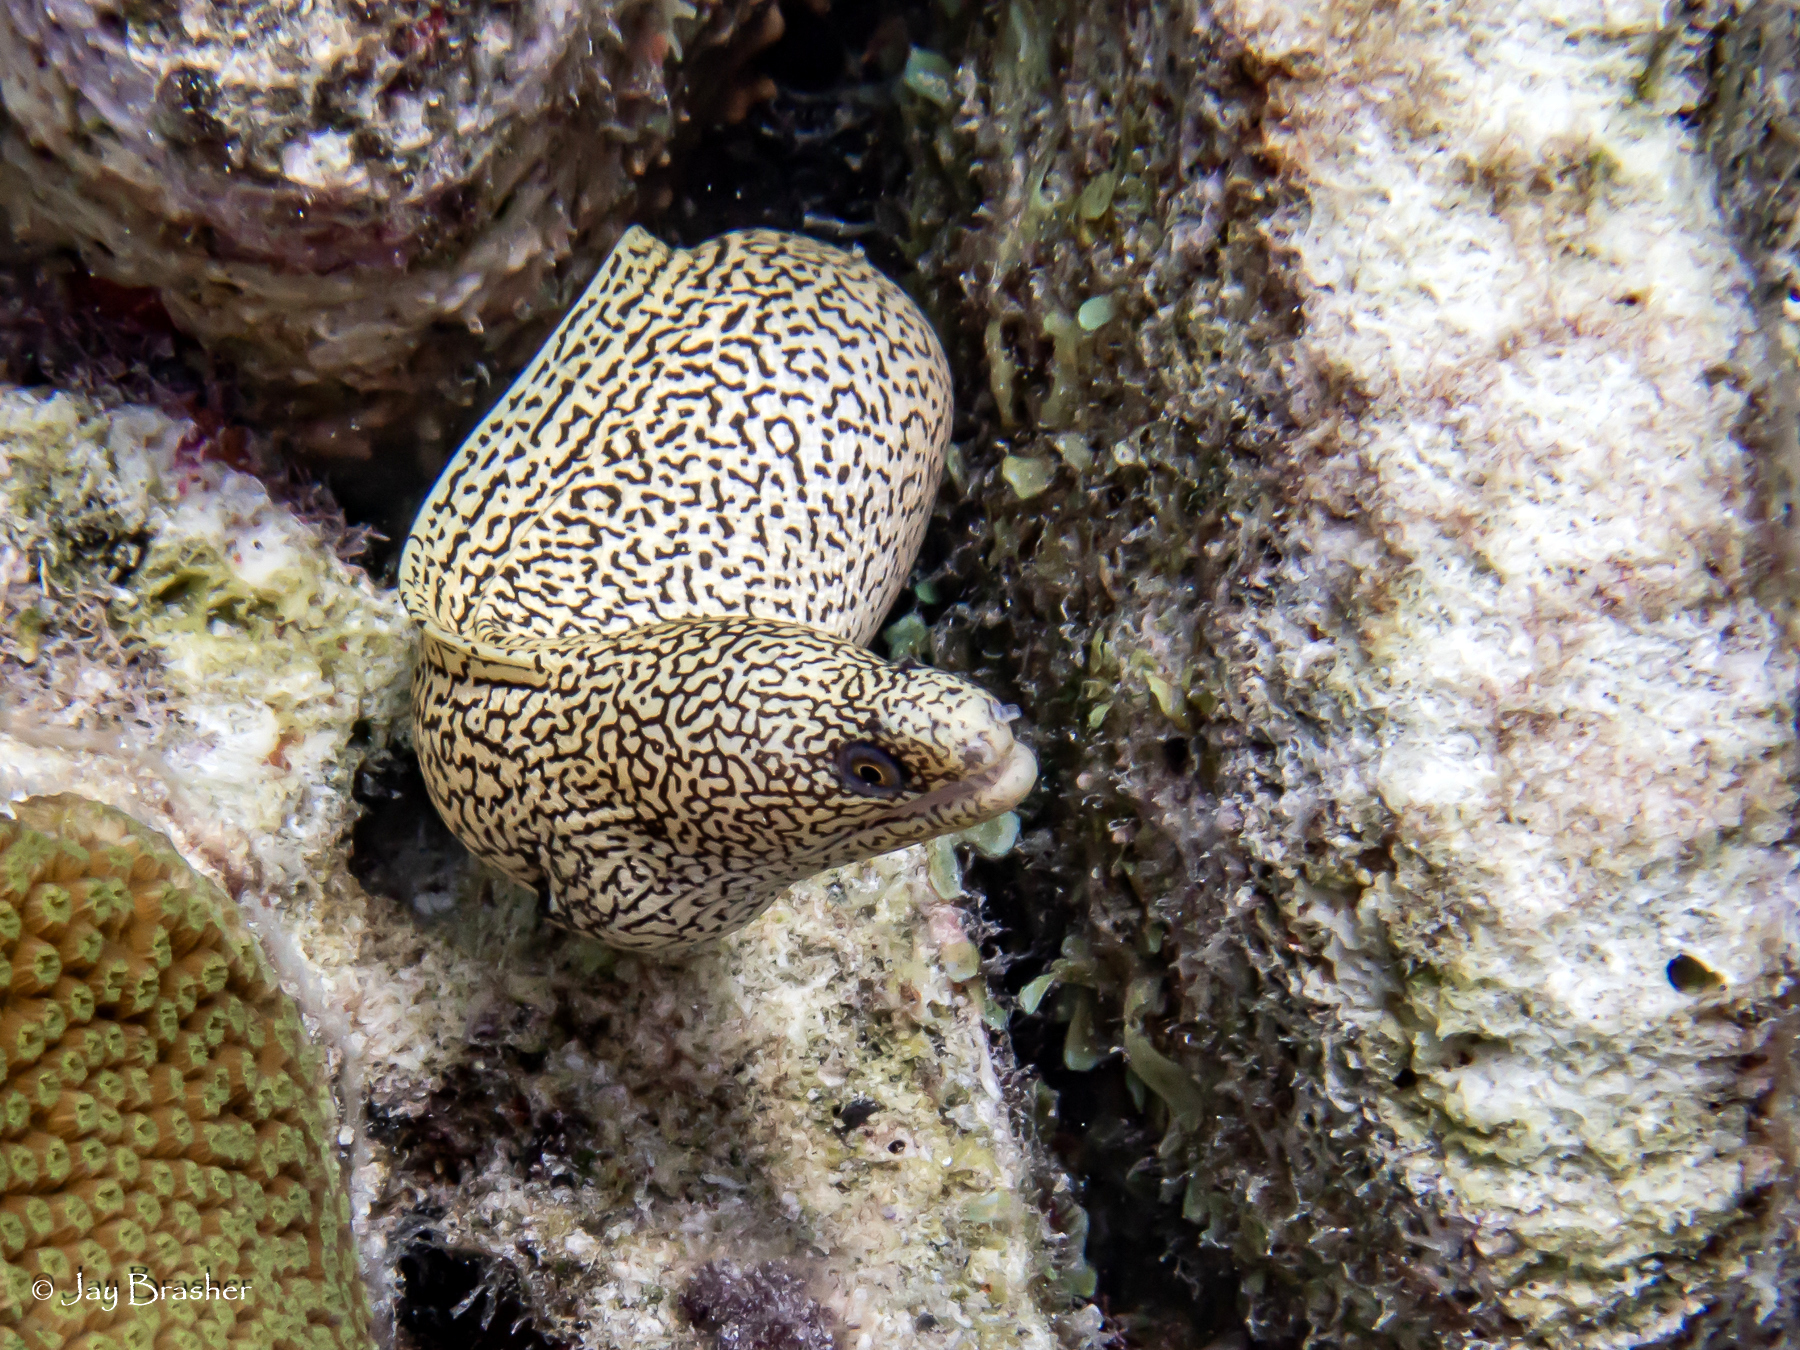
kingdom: Animalia
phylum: Chordata
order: Anguilliformes
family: Muraenidae
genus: Gymnothorax
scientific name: Gymnothorax miliaris
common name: Goldentail moray
